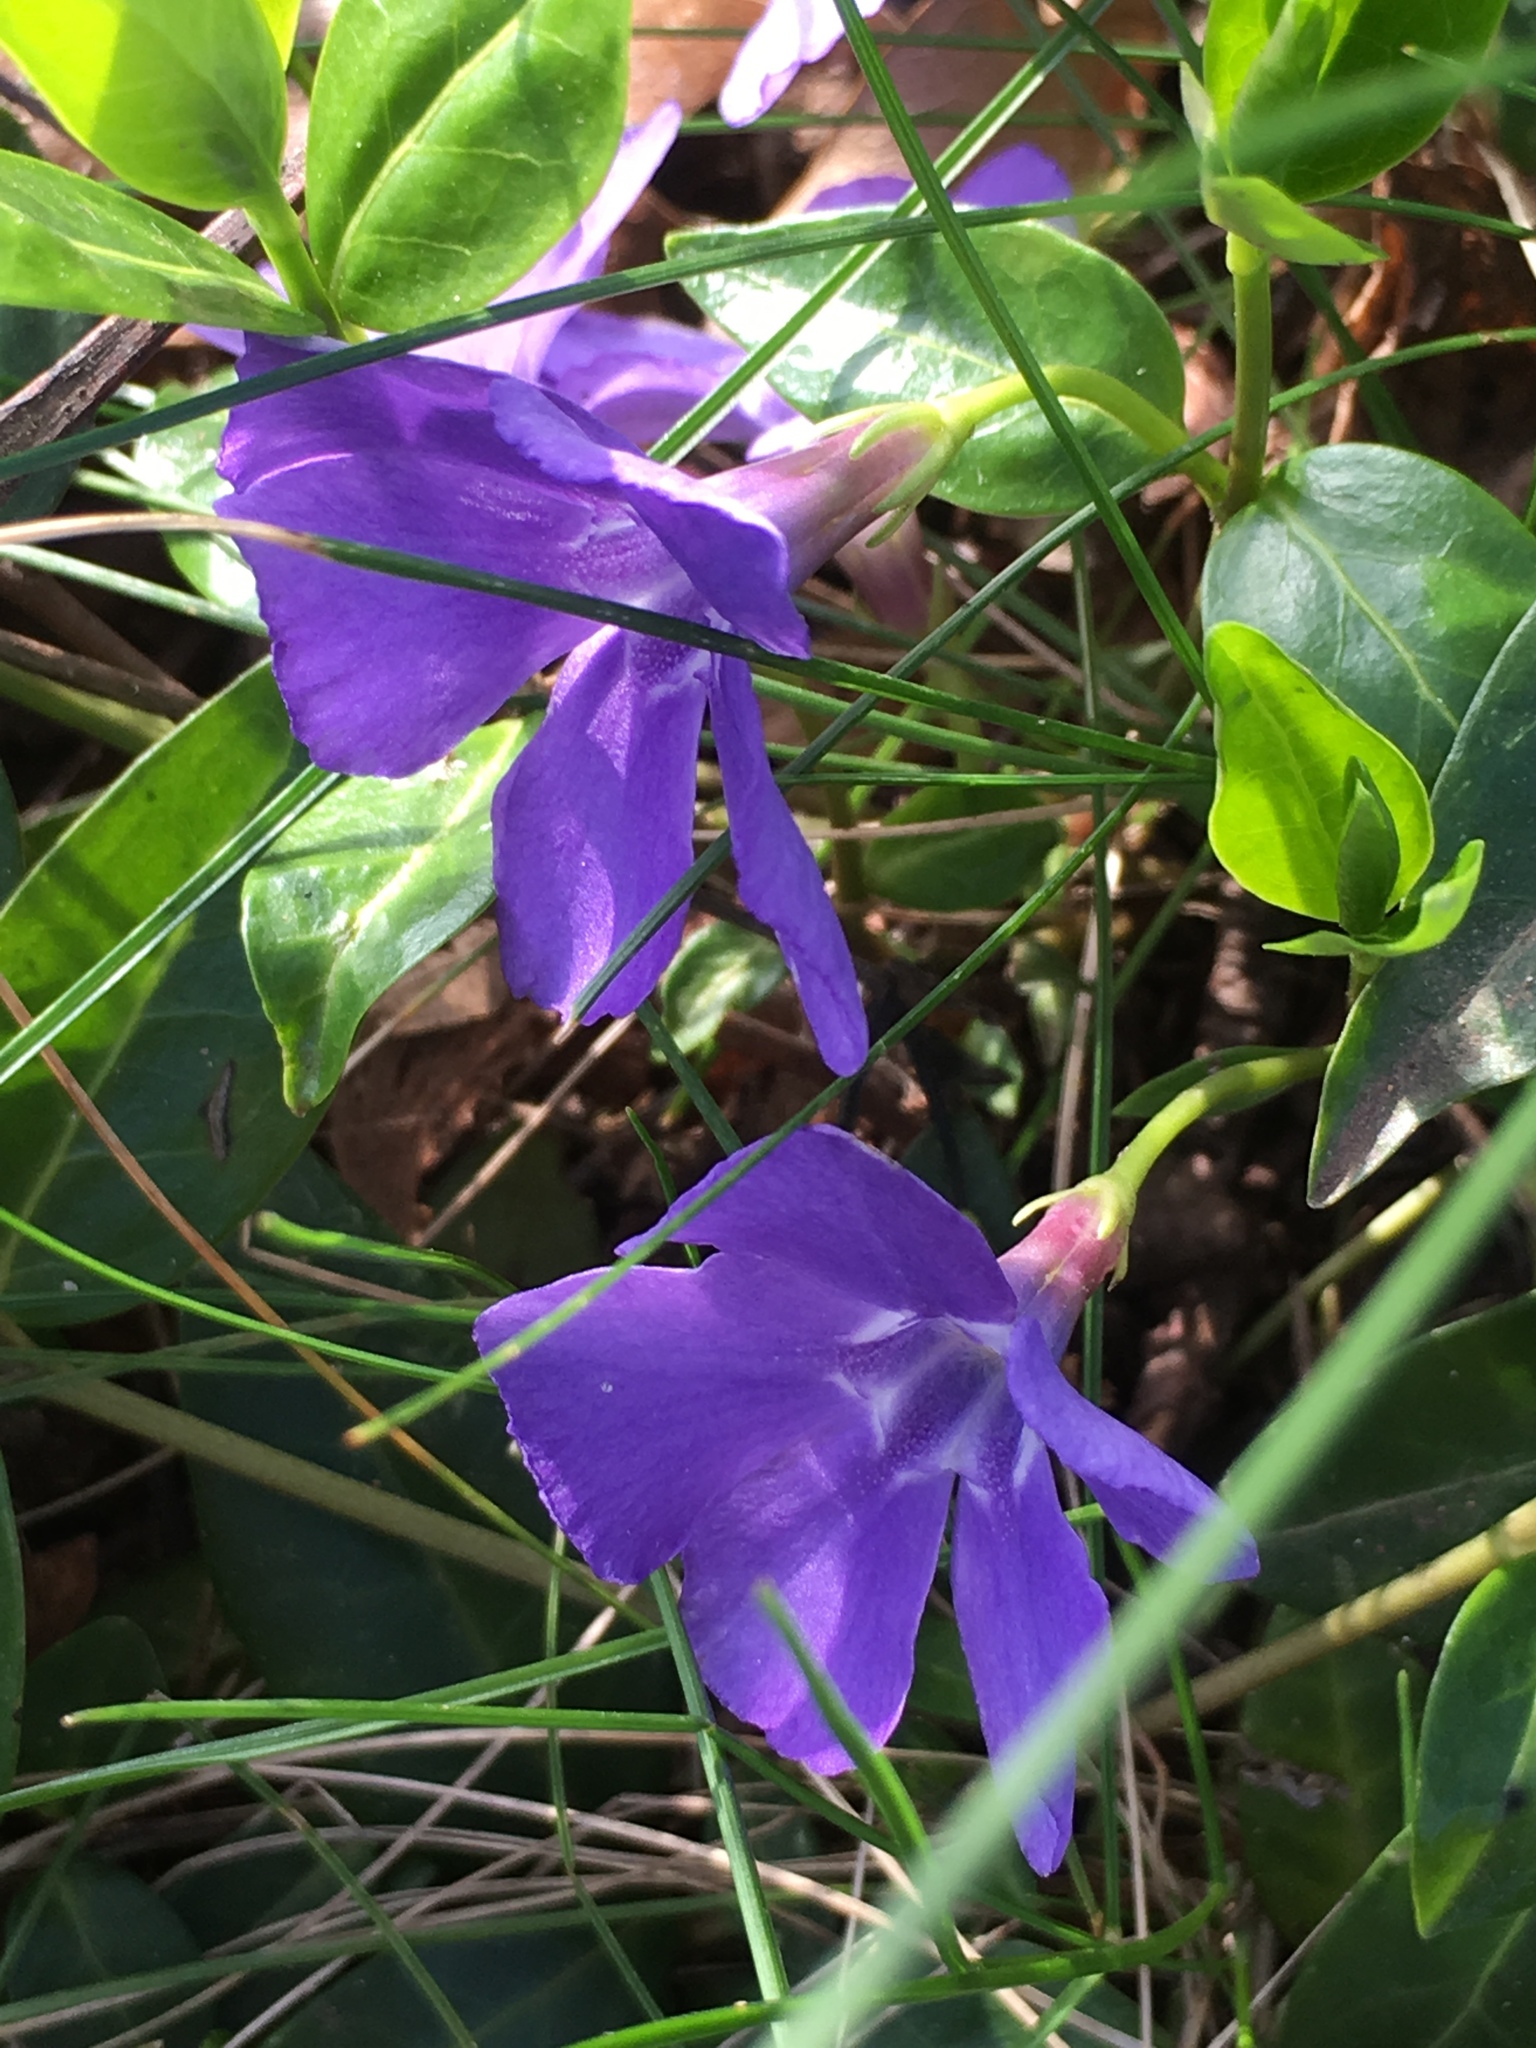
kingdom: Plantae
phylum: Tracheophyta
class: Magnoliopsida
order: Gentianales
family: Apocynaceae
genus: Vinca
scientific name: Vinca minor
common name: Lesser periwinkle
